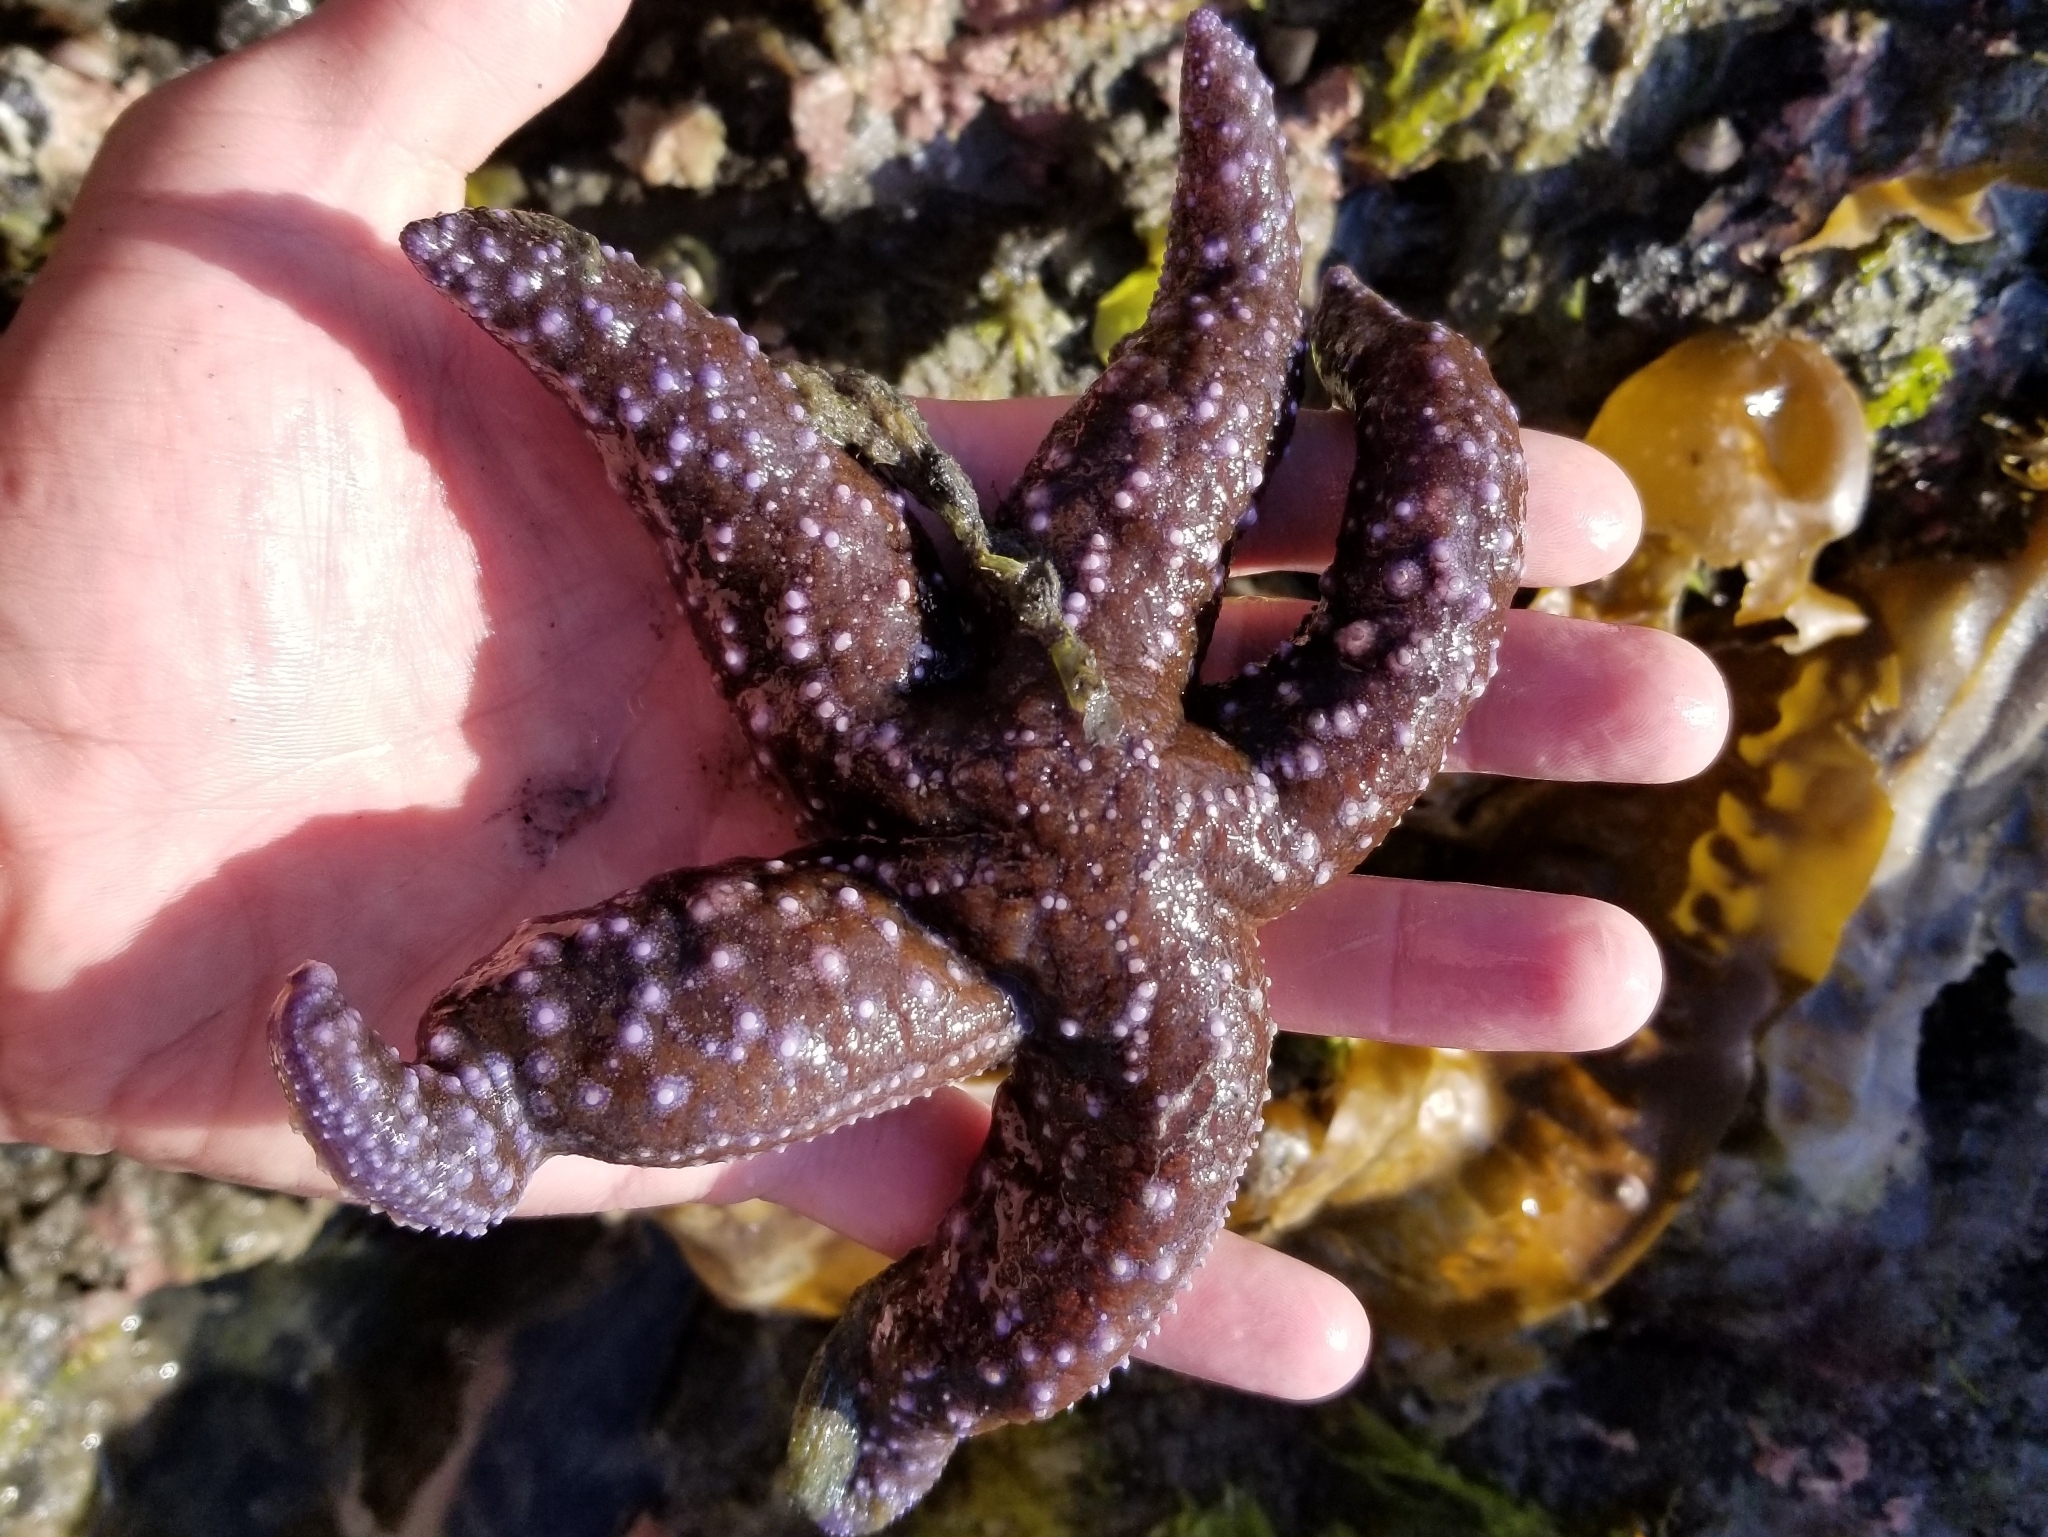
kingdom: Animalia
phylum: Echinodermata
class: Asteroidea
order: Forcipulatida
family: Asteriidae
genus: Evasterias
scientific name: Evasterias troschelii
